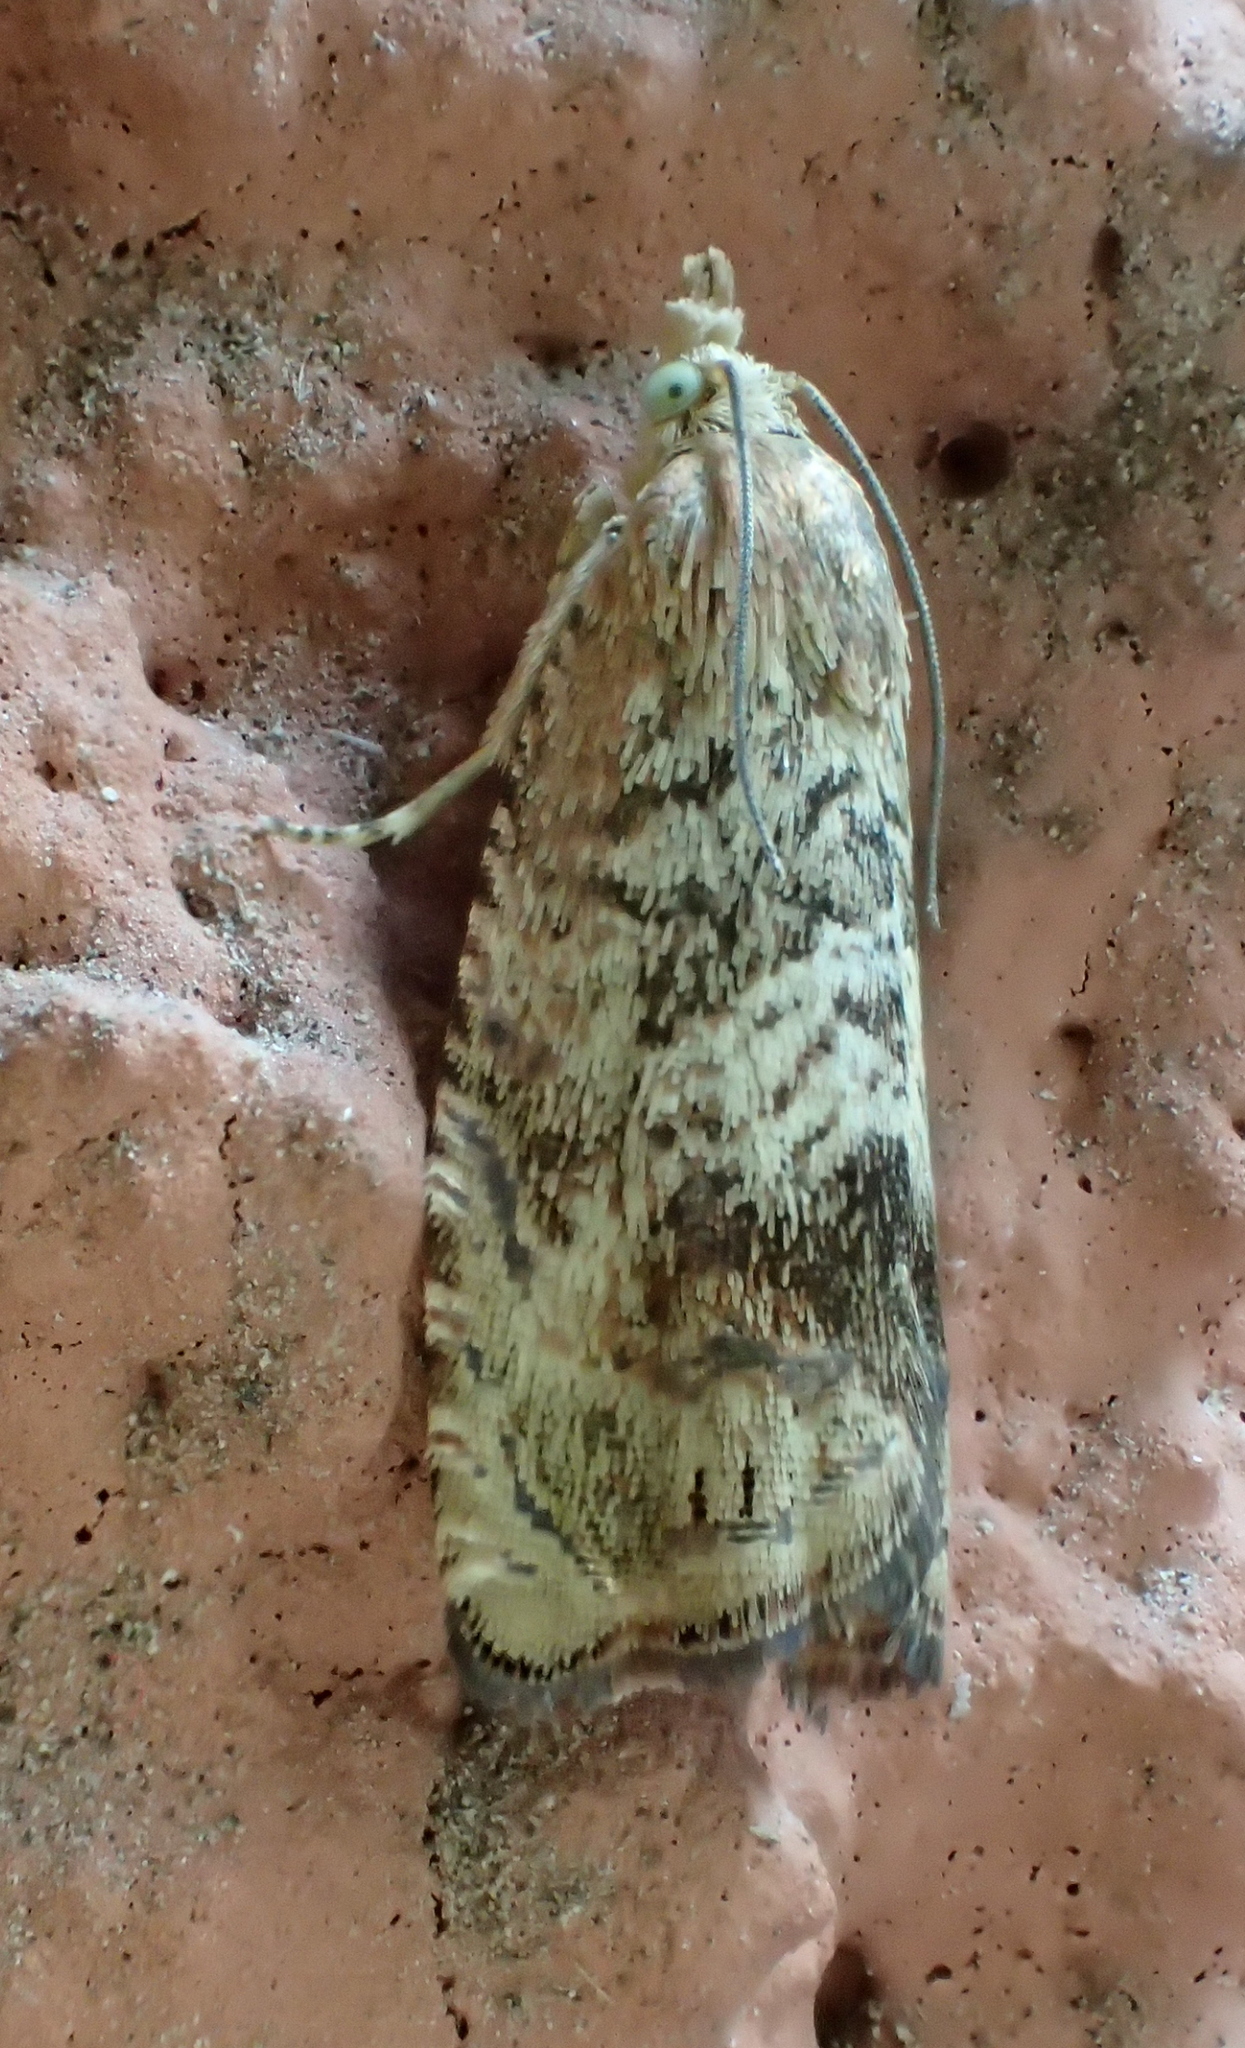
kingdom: Animalia
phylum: Arthropoda
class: Insecta
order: Lepidoptera
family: Tortricidae
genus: Cydia
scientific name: Cydia amplana
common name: Vagrant piercer
